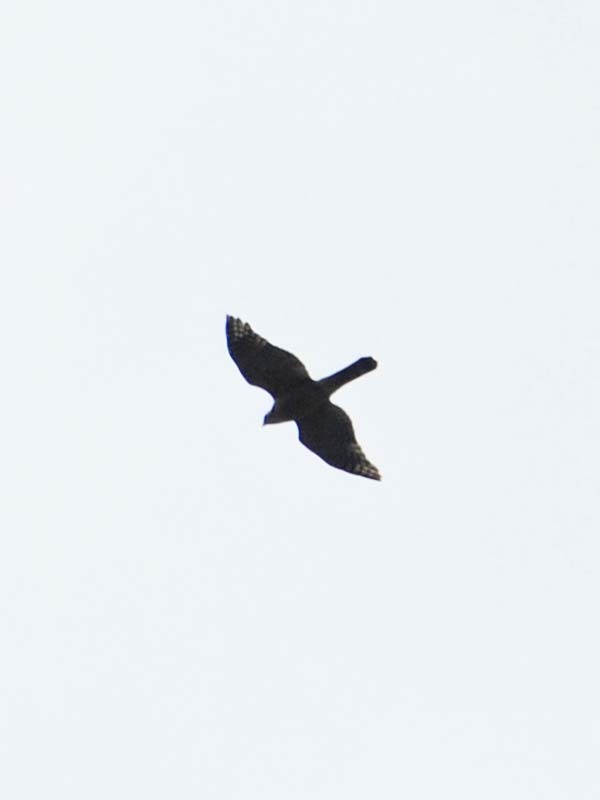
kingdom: Animalia
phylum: Chordata
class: Aves
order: Accipitriformes
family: Accipitridae
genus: Accipiter
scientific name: Accipiter cooperii
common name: Cooper's hawk
